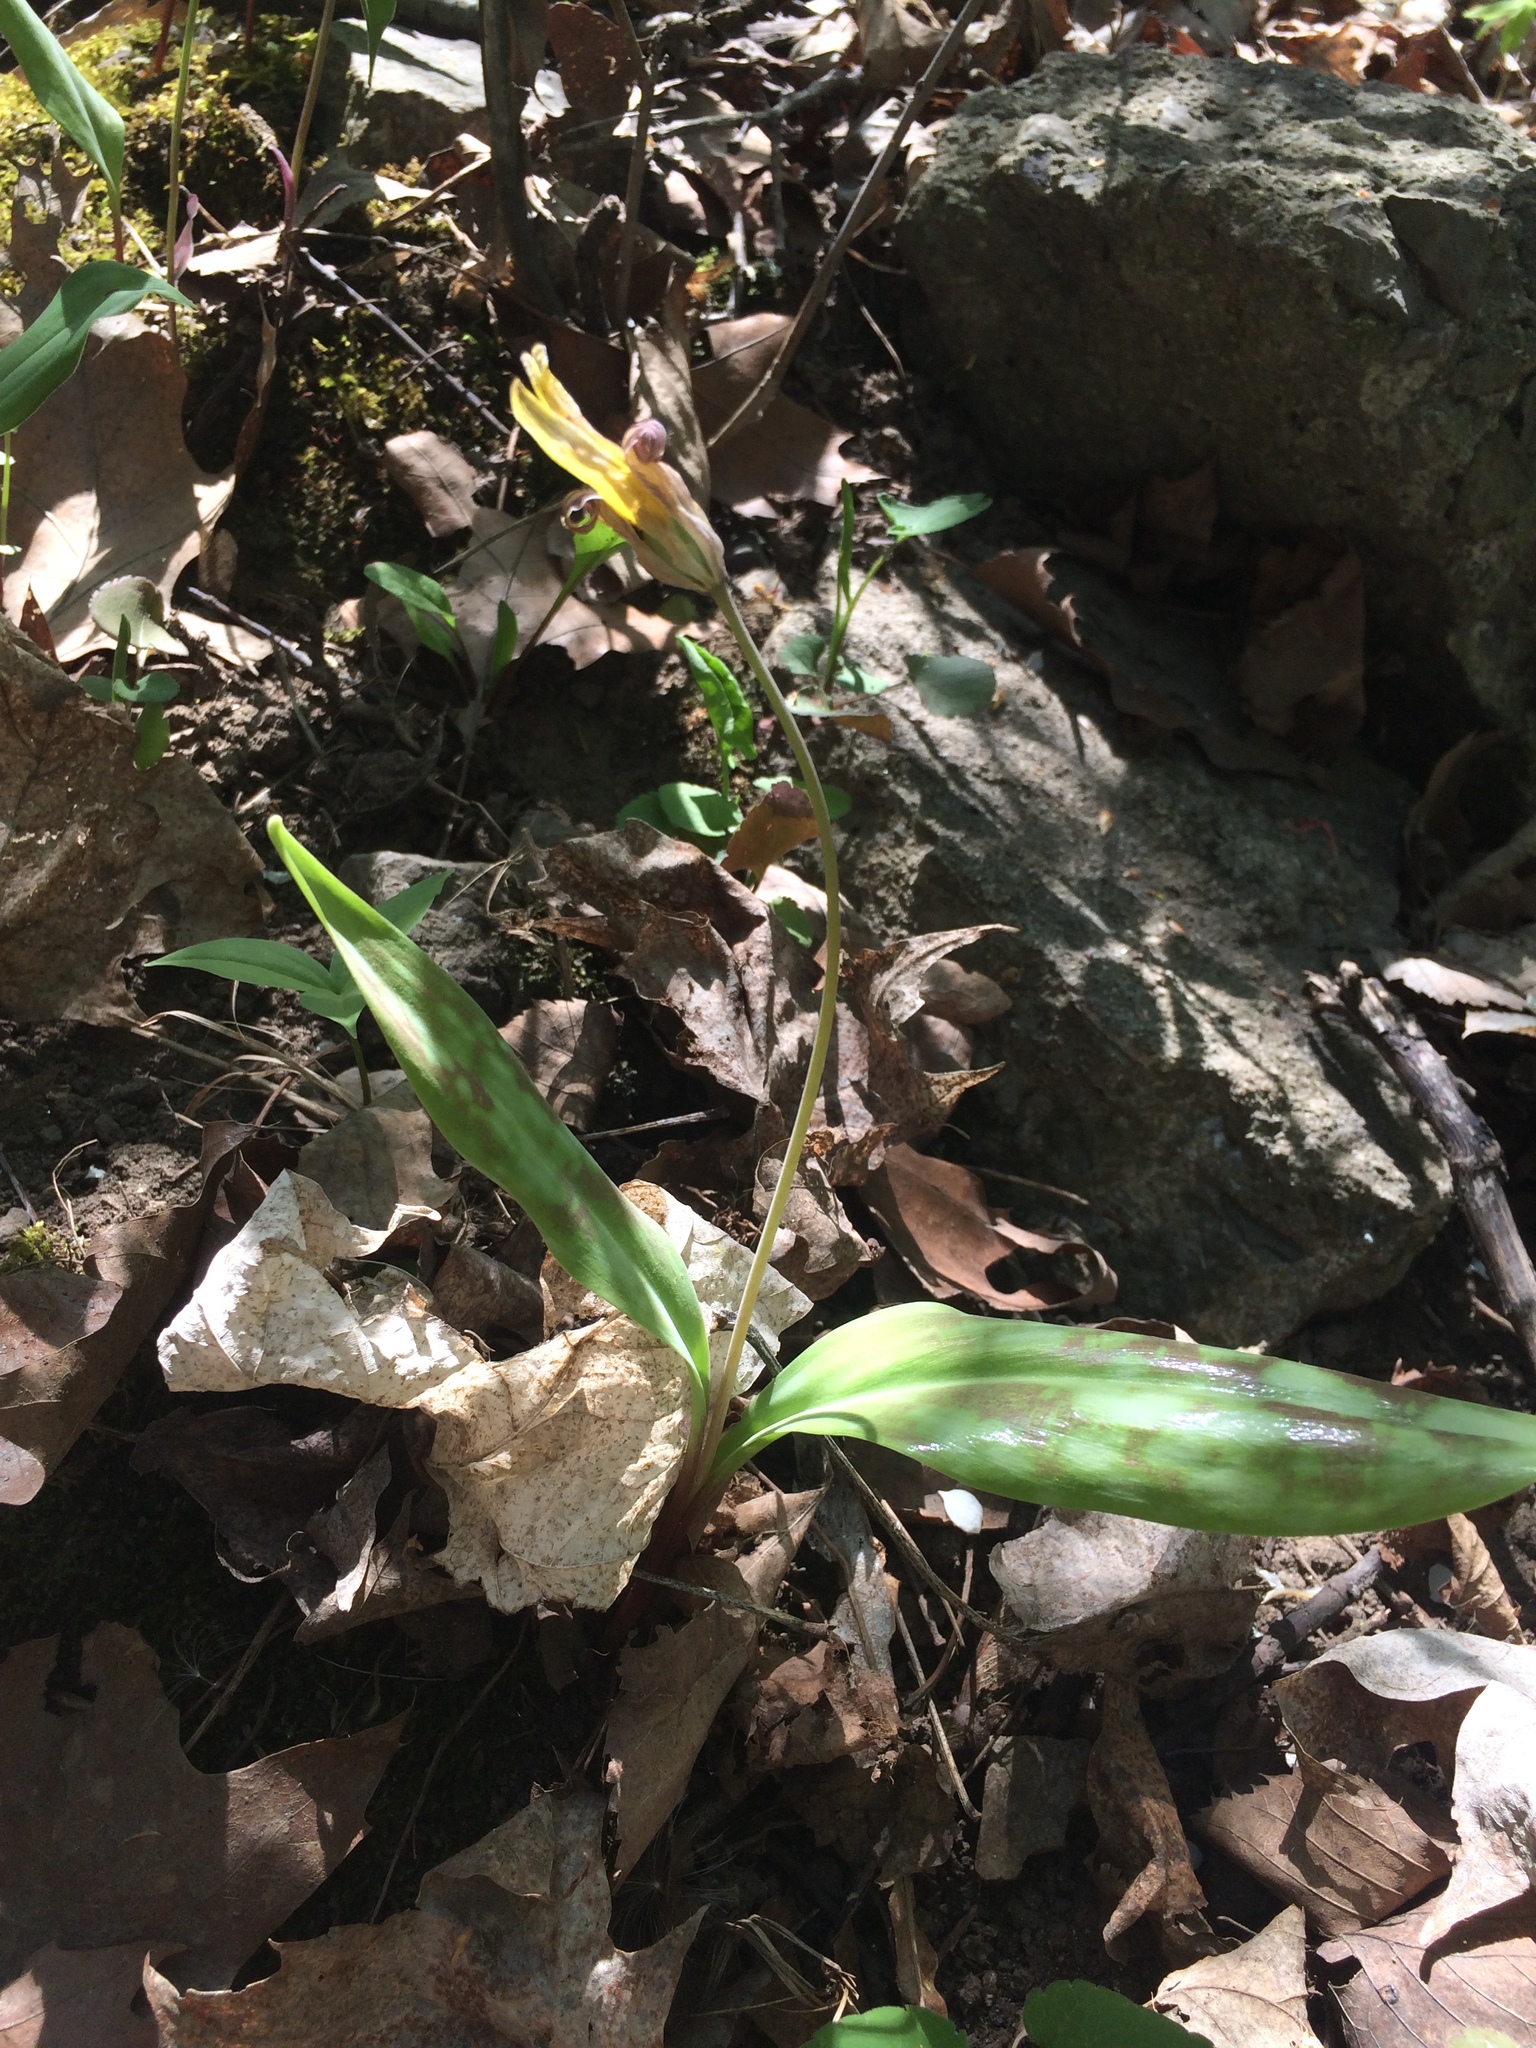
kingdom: Plantae
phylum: Tracheophyta
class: Liliopsida
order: Liliales
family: Liliaceae
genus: Erythronium
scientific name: Erythronium americanum
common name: Yellow adder's-tongue
